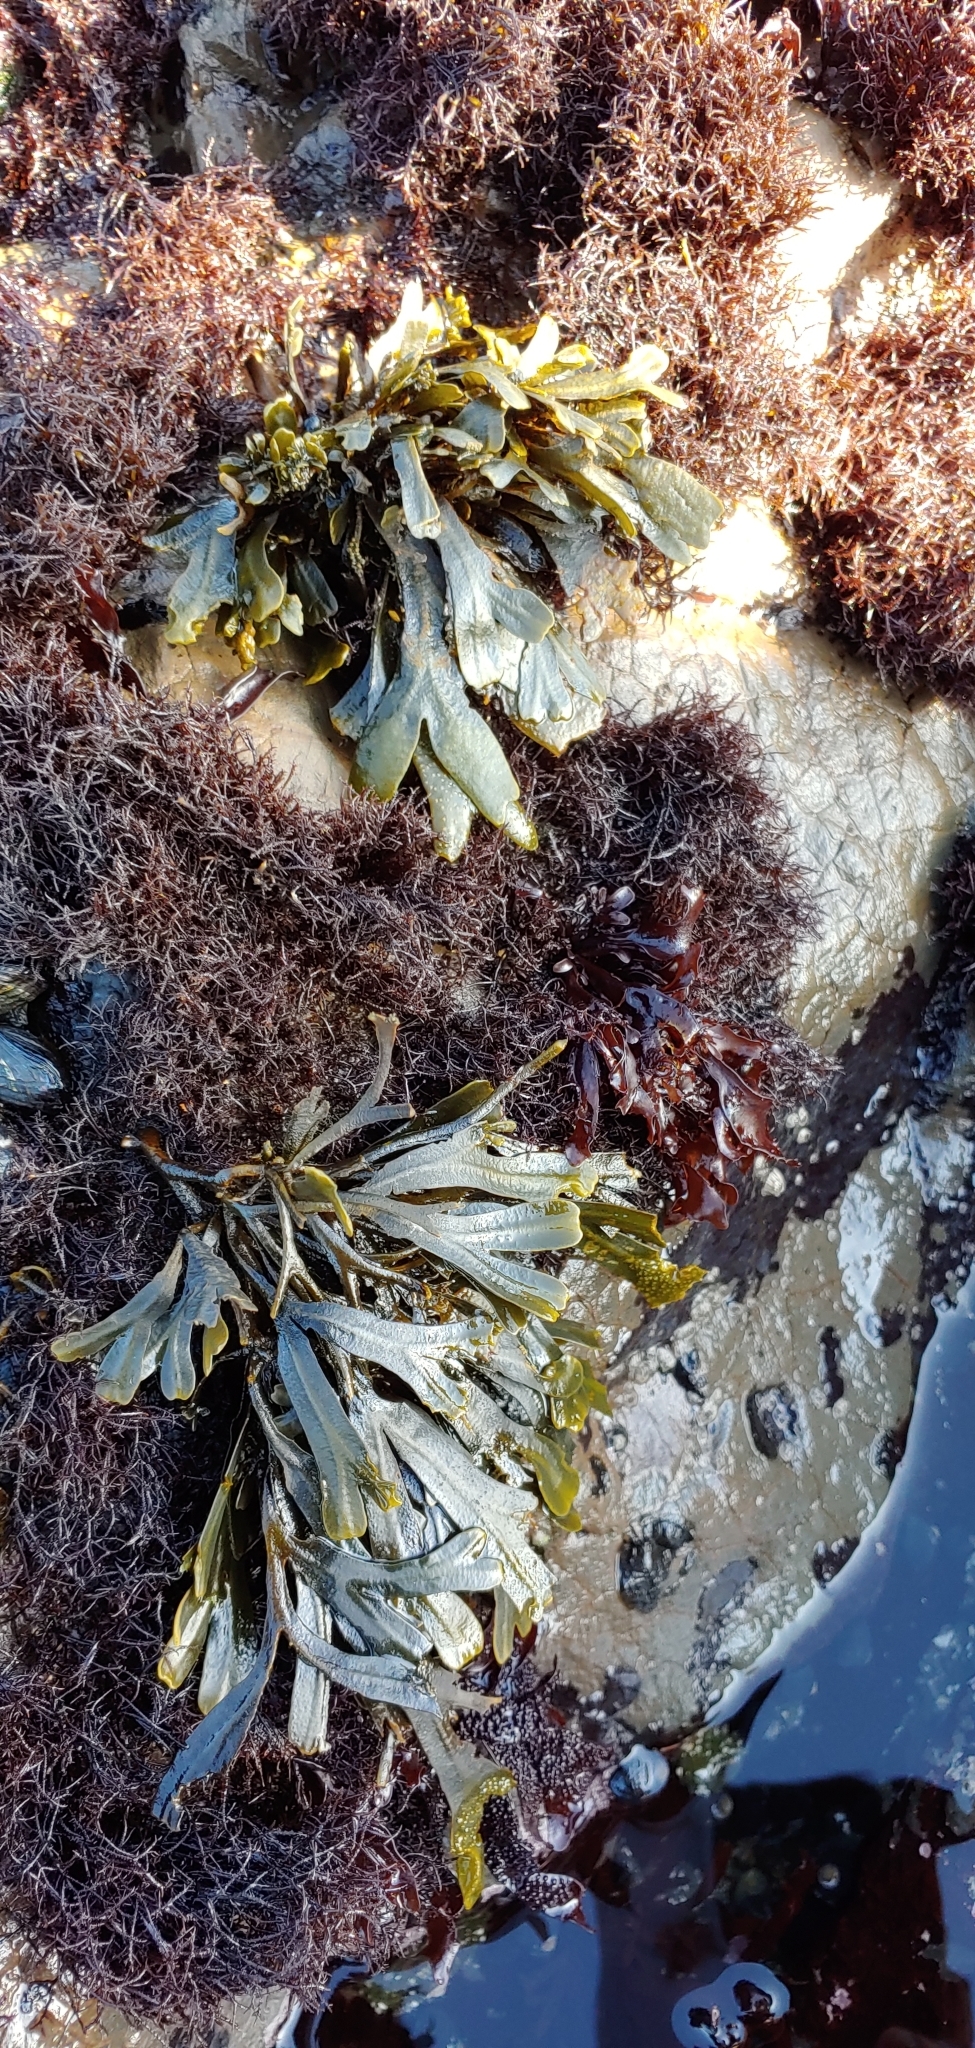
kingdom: Chromista
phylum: Ochrophyta
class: Phaeophyceae
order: Fucales
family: Fucaceae
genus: Fucus
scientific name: Fucus distichus
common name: Rockweed
